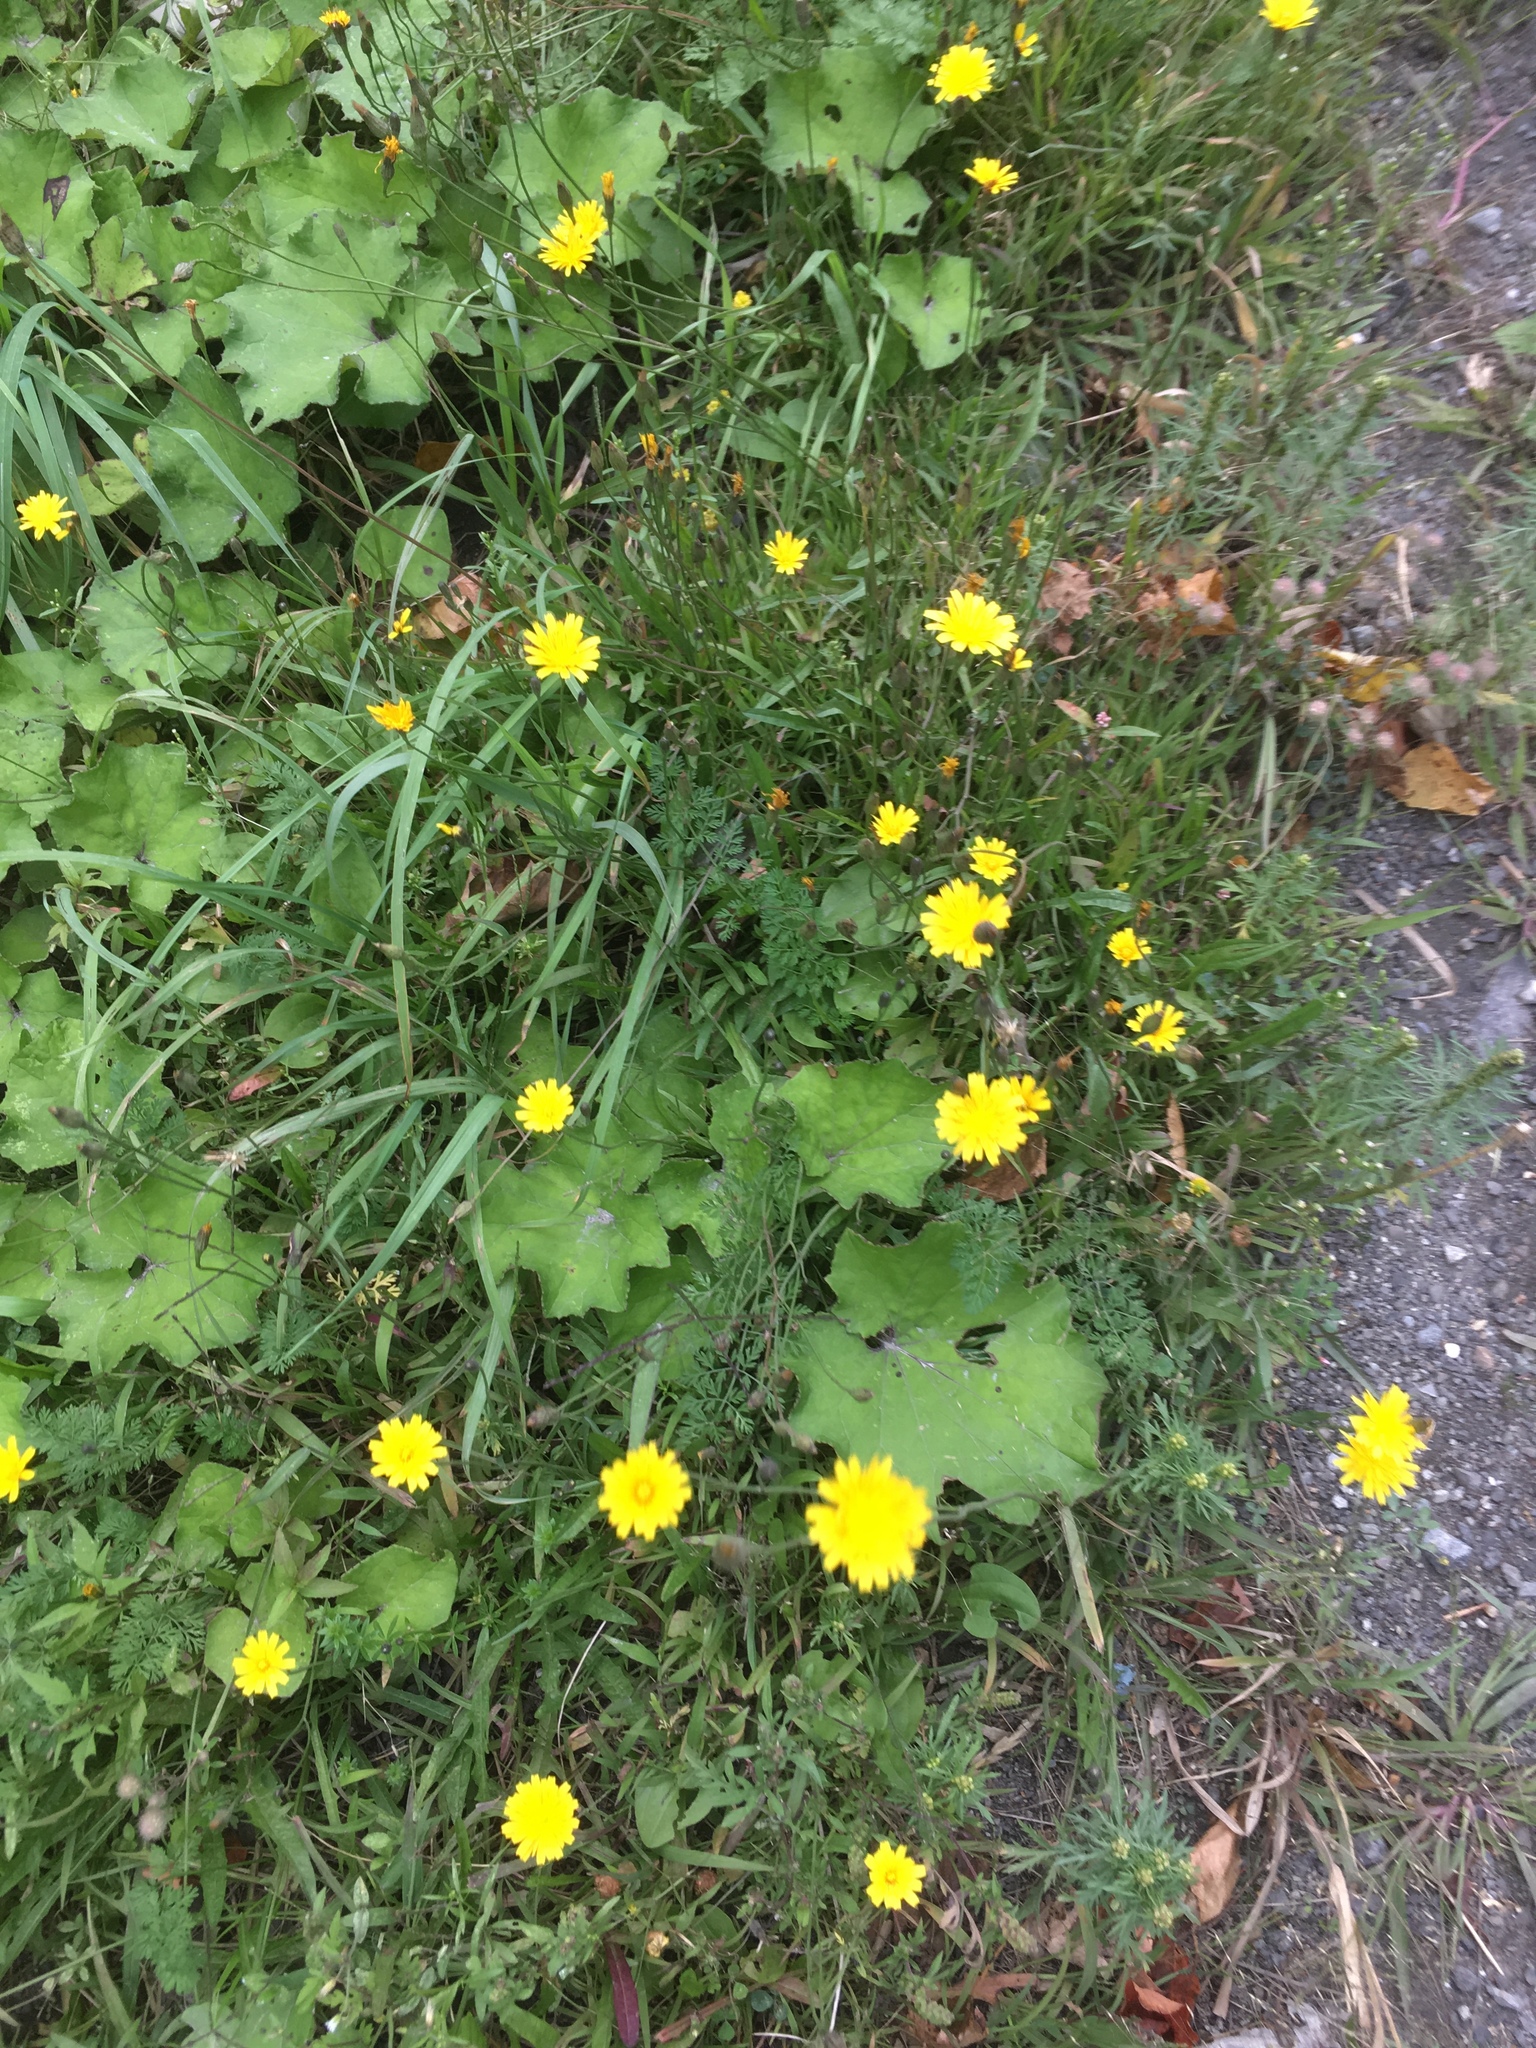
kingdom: Plantae
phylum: Tracheophyta
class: Magnoliopsida
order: Asterales
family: Asteraceae
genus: Scorzoneroides
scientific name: Scorzoneroides autumnalis
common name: Autumn hawkbit
